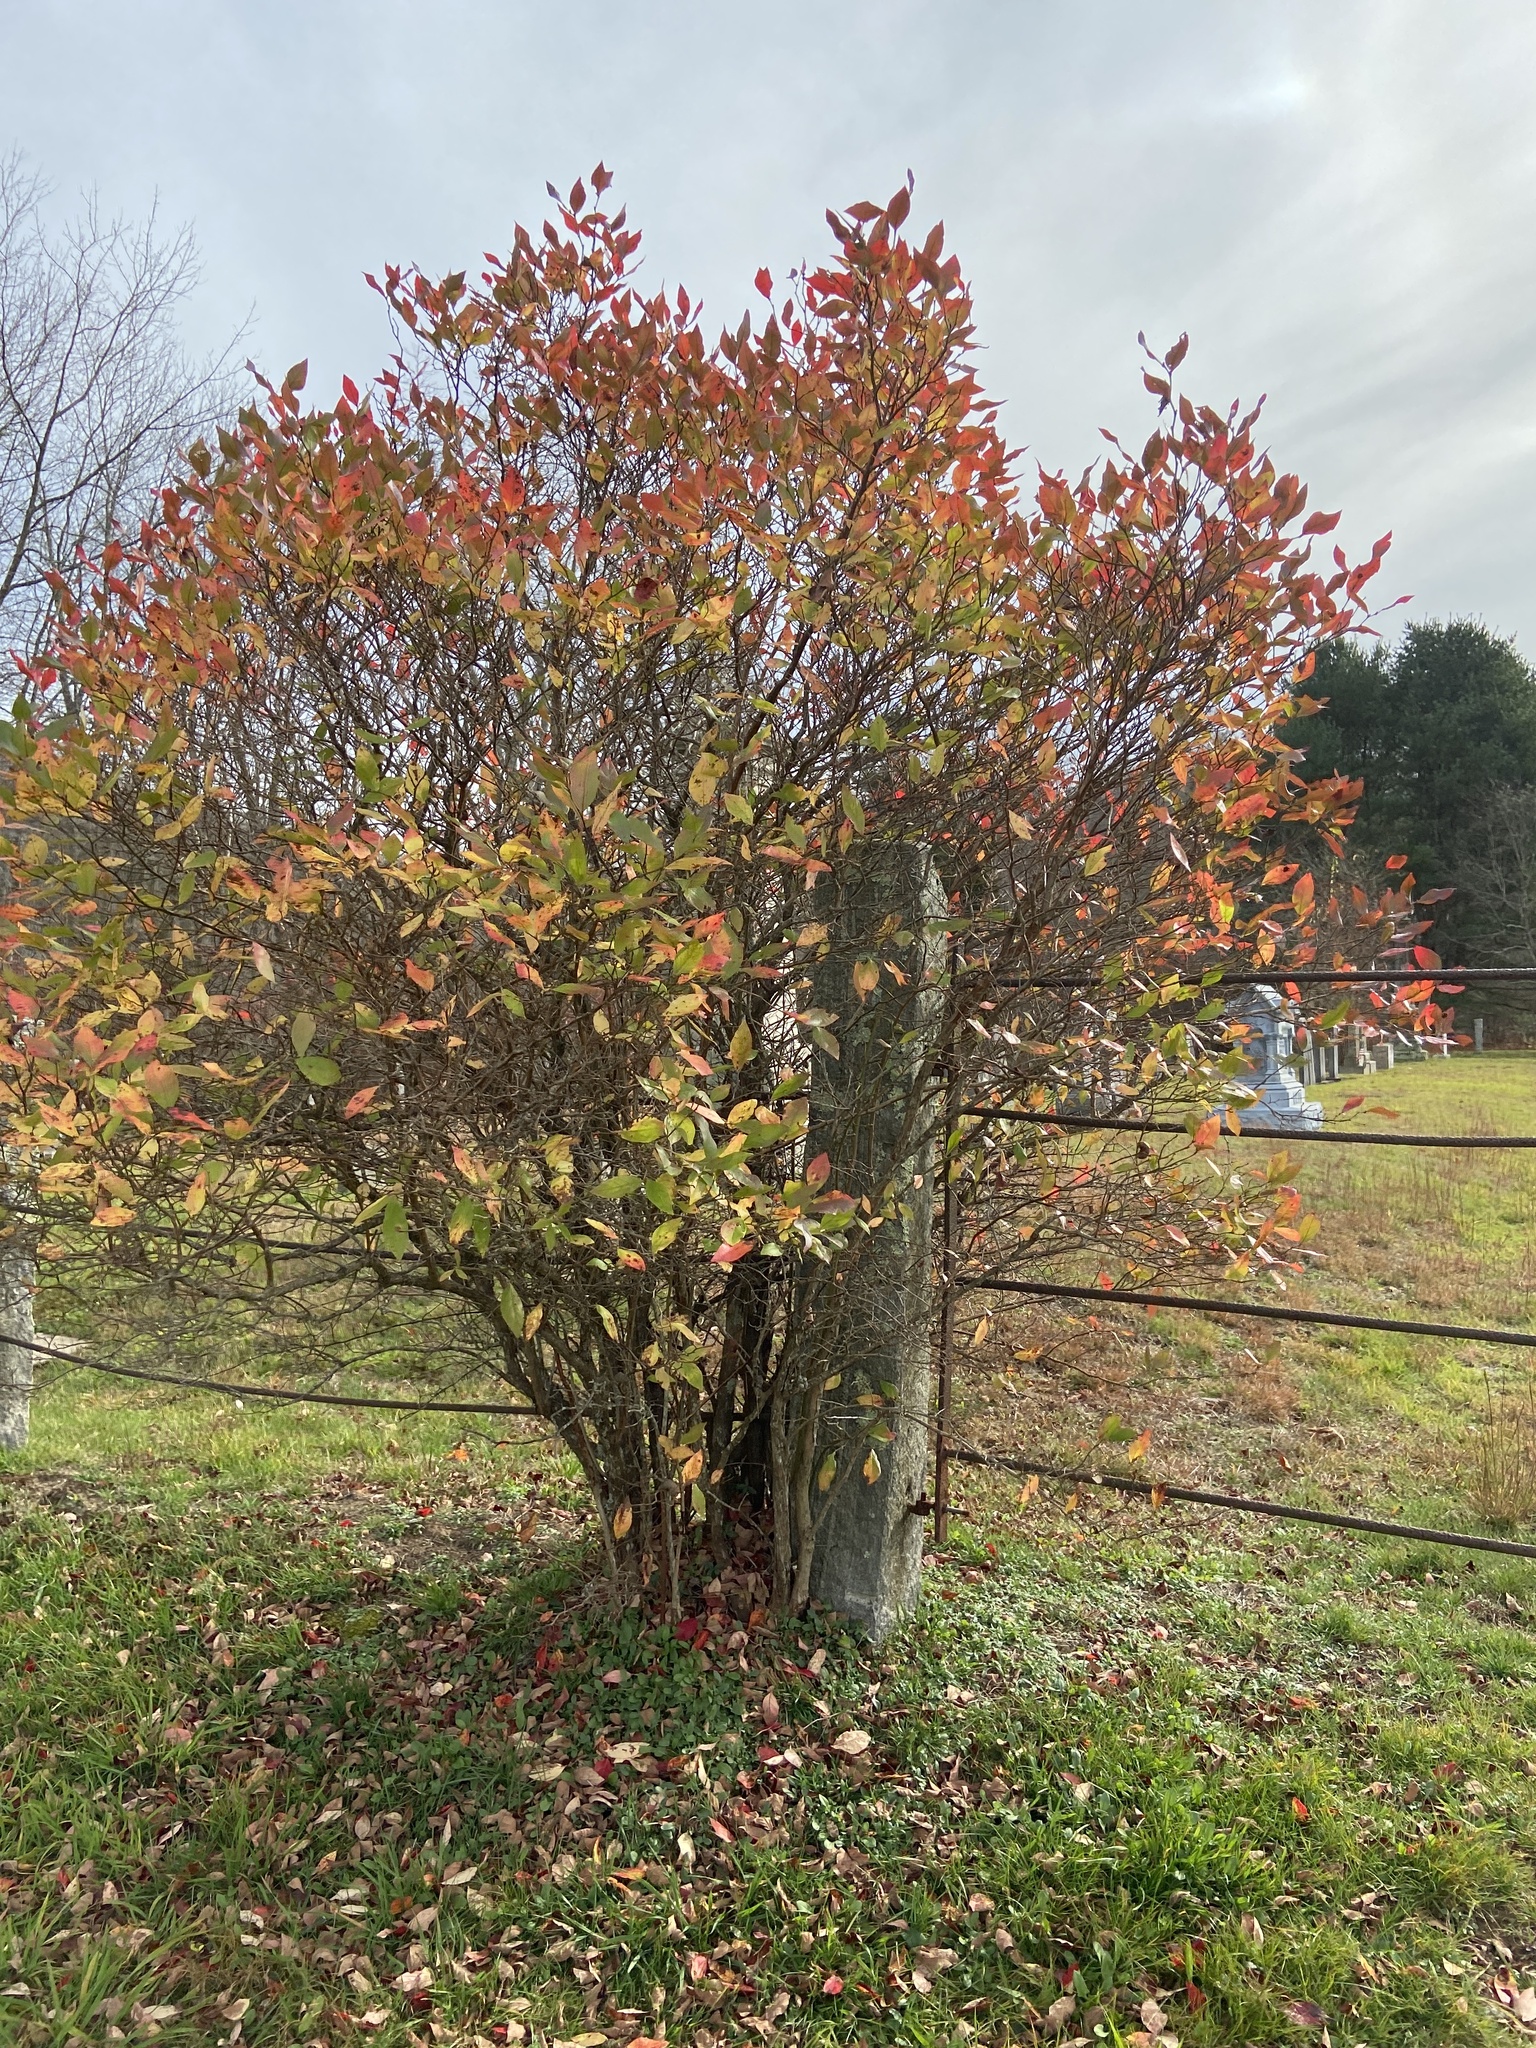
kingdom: Plantae
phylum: Tracheophyta
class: Magnoliopsida
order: Ericales
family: Ericaceae
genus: Vaccinium
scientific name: Vaccinium corymbosum
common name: Blueberry
